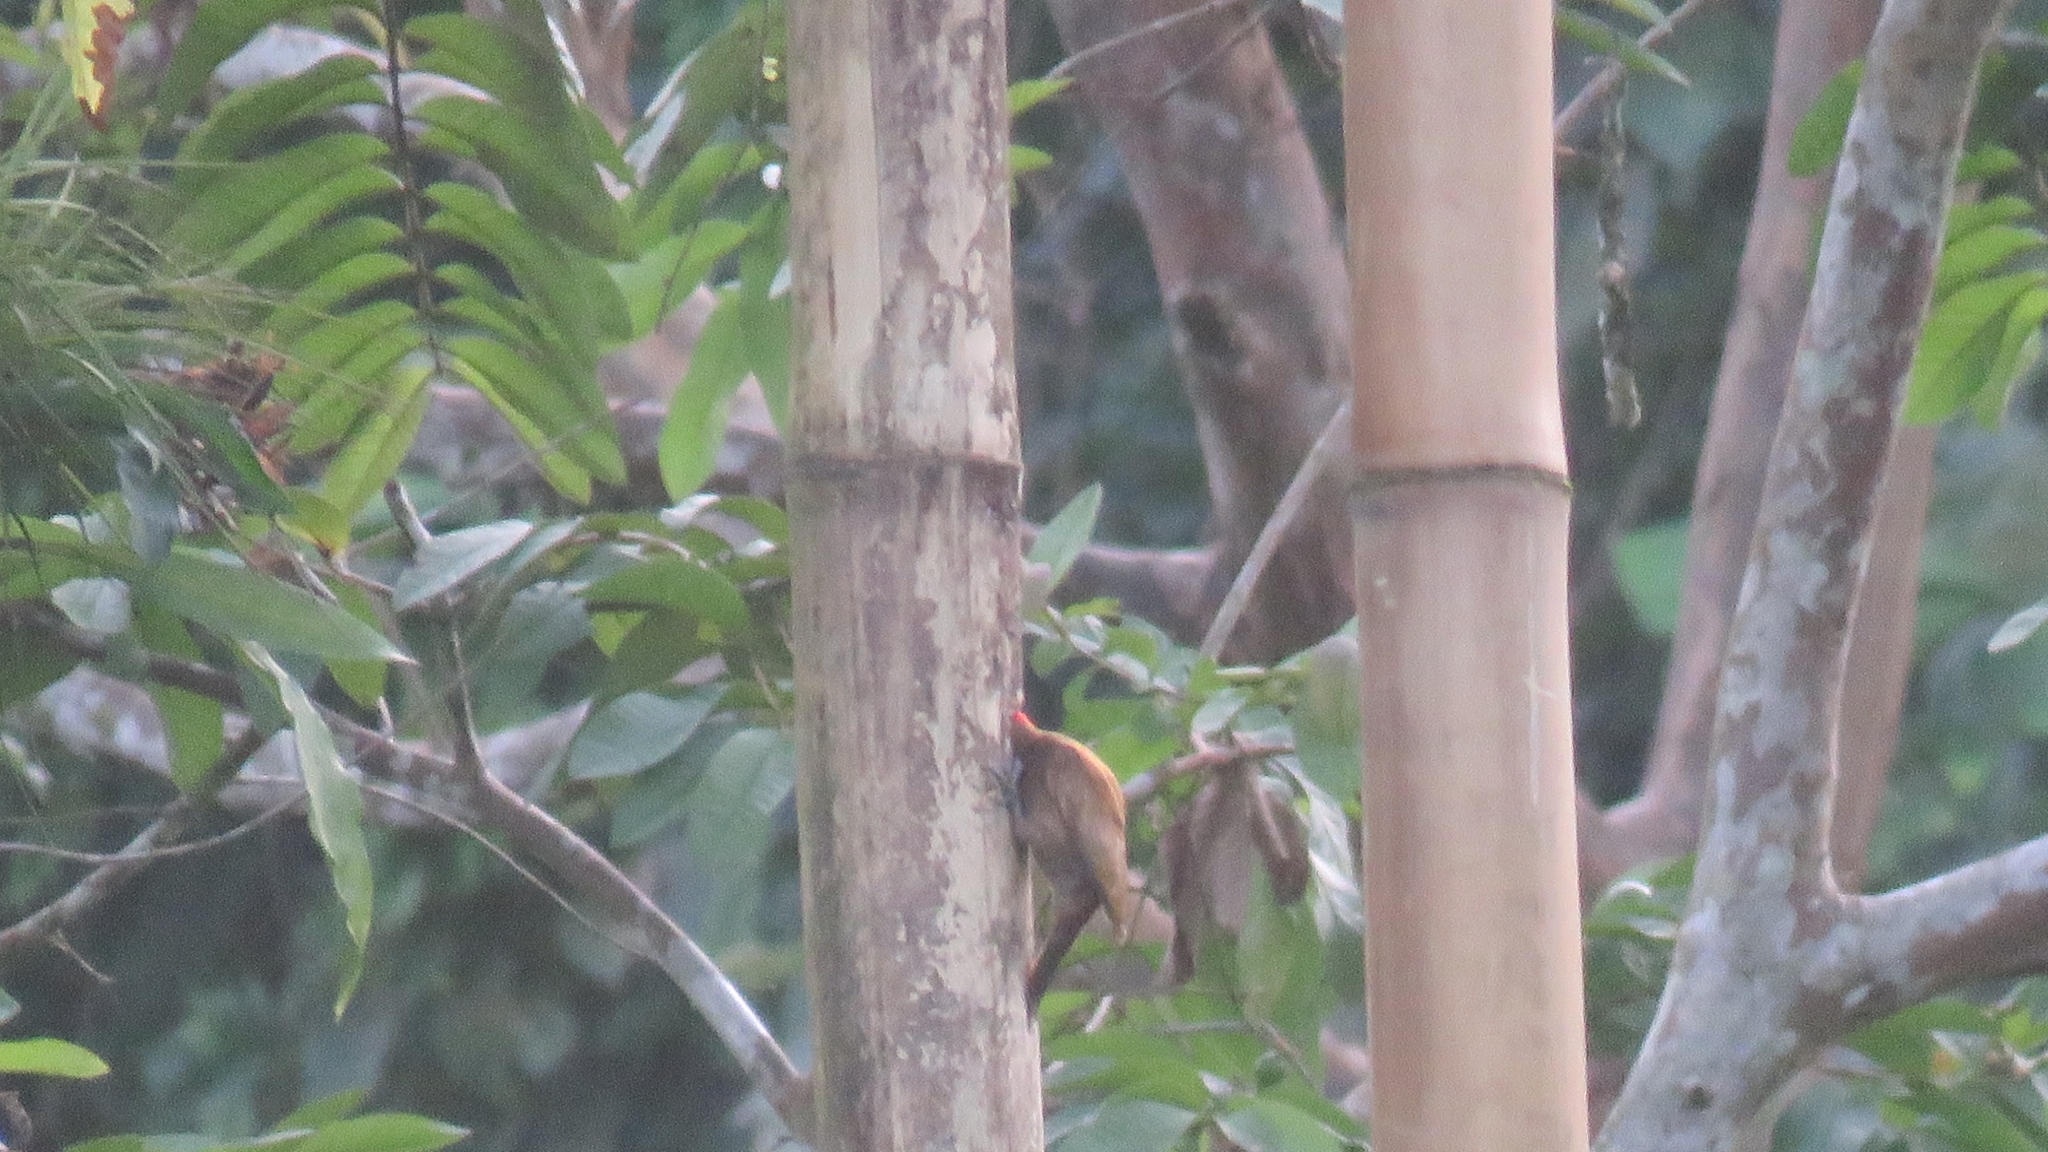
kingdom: Animalia
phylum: Chordata
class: Aves
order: Piciformes
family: Picidae
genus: Leuconotopicus
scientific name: Leuconotopicus fumigatus
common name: Smoky-brown woodpecker
